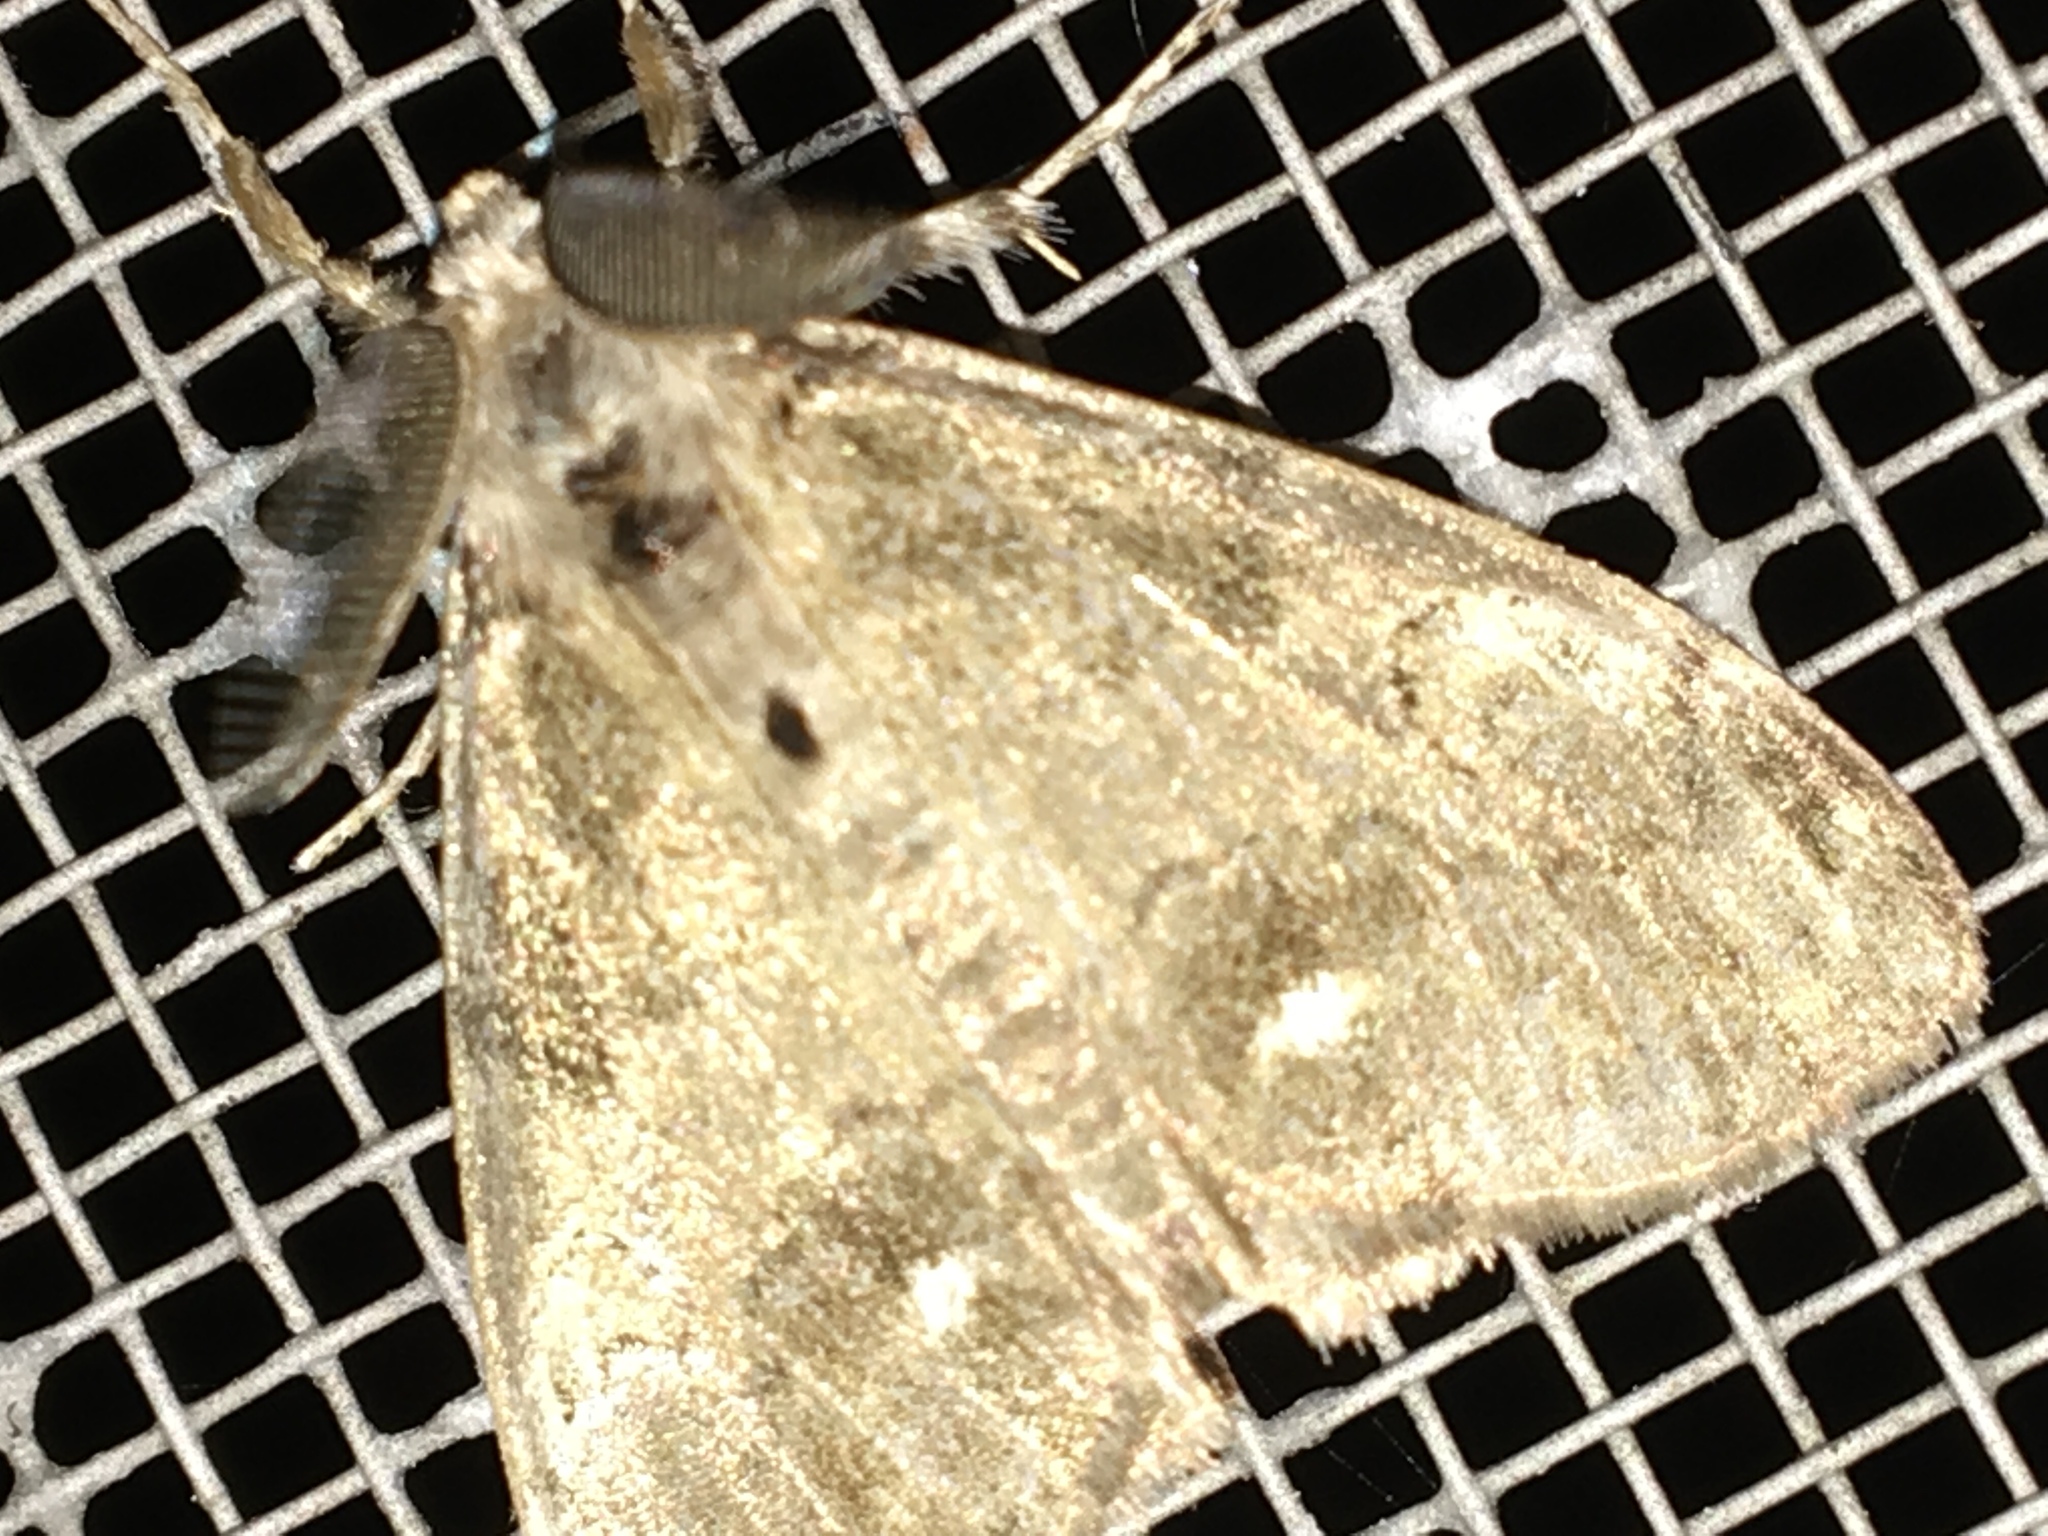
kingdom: Animalia
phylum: Arthropoda
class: Insecta
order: Lepidoptera
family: Erebidae
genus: Orgyia
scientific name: Orgyia leucostigma
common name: White-marked tussock moth
